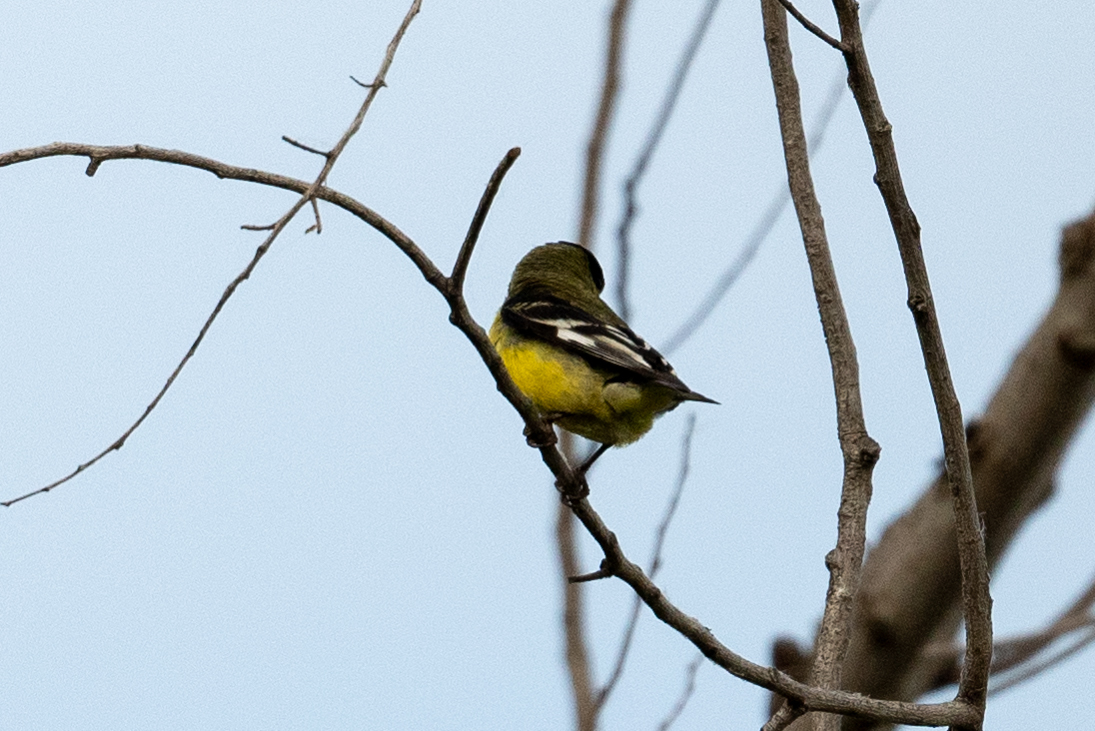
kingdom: Animalia
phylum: Chordata
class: Aves
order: Passeriformes
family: Fringillidae
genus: Spinus
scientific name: Spinus psaltria
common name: Lesser goldfinch
